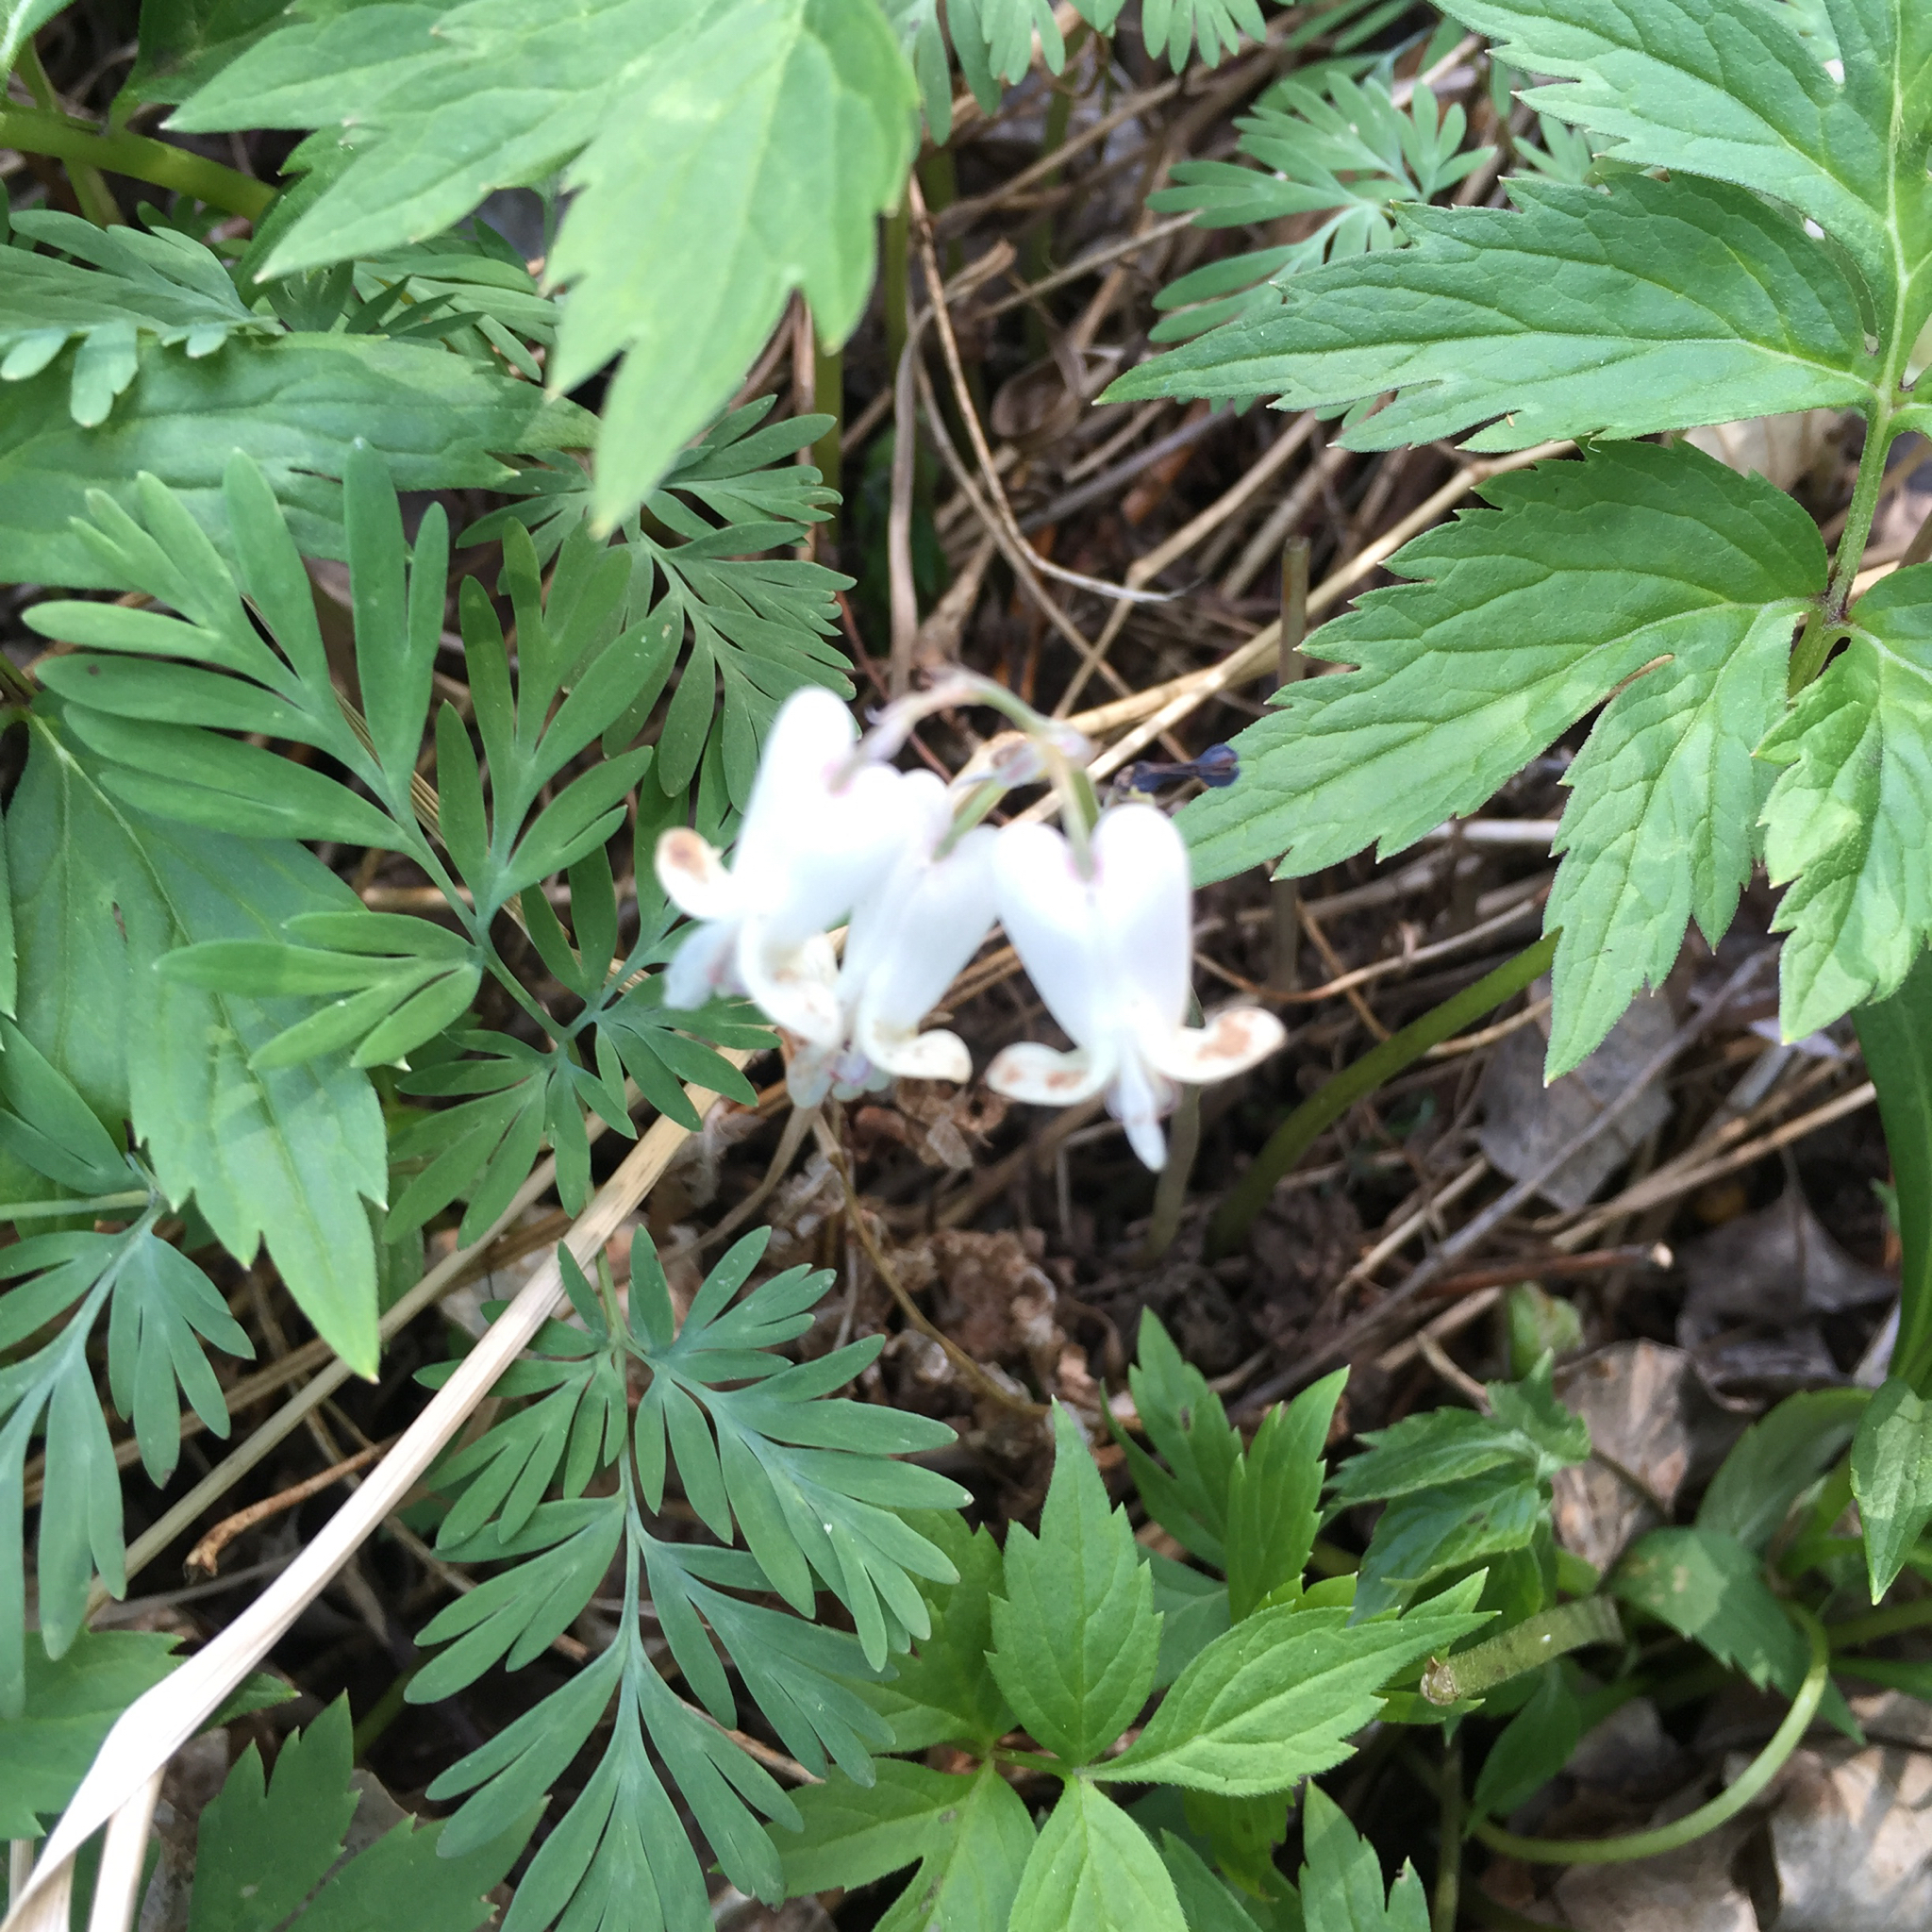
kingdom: Plantae
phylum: Tracheophyta
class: Magnoliopsida
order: Ranunculales
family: Papaveraceae
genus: Dicentra
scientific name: Dicentra canadensis
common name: Squirrel-corn
